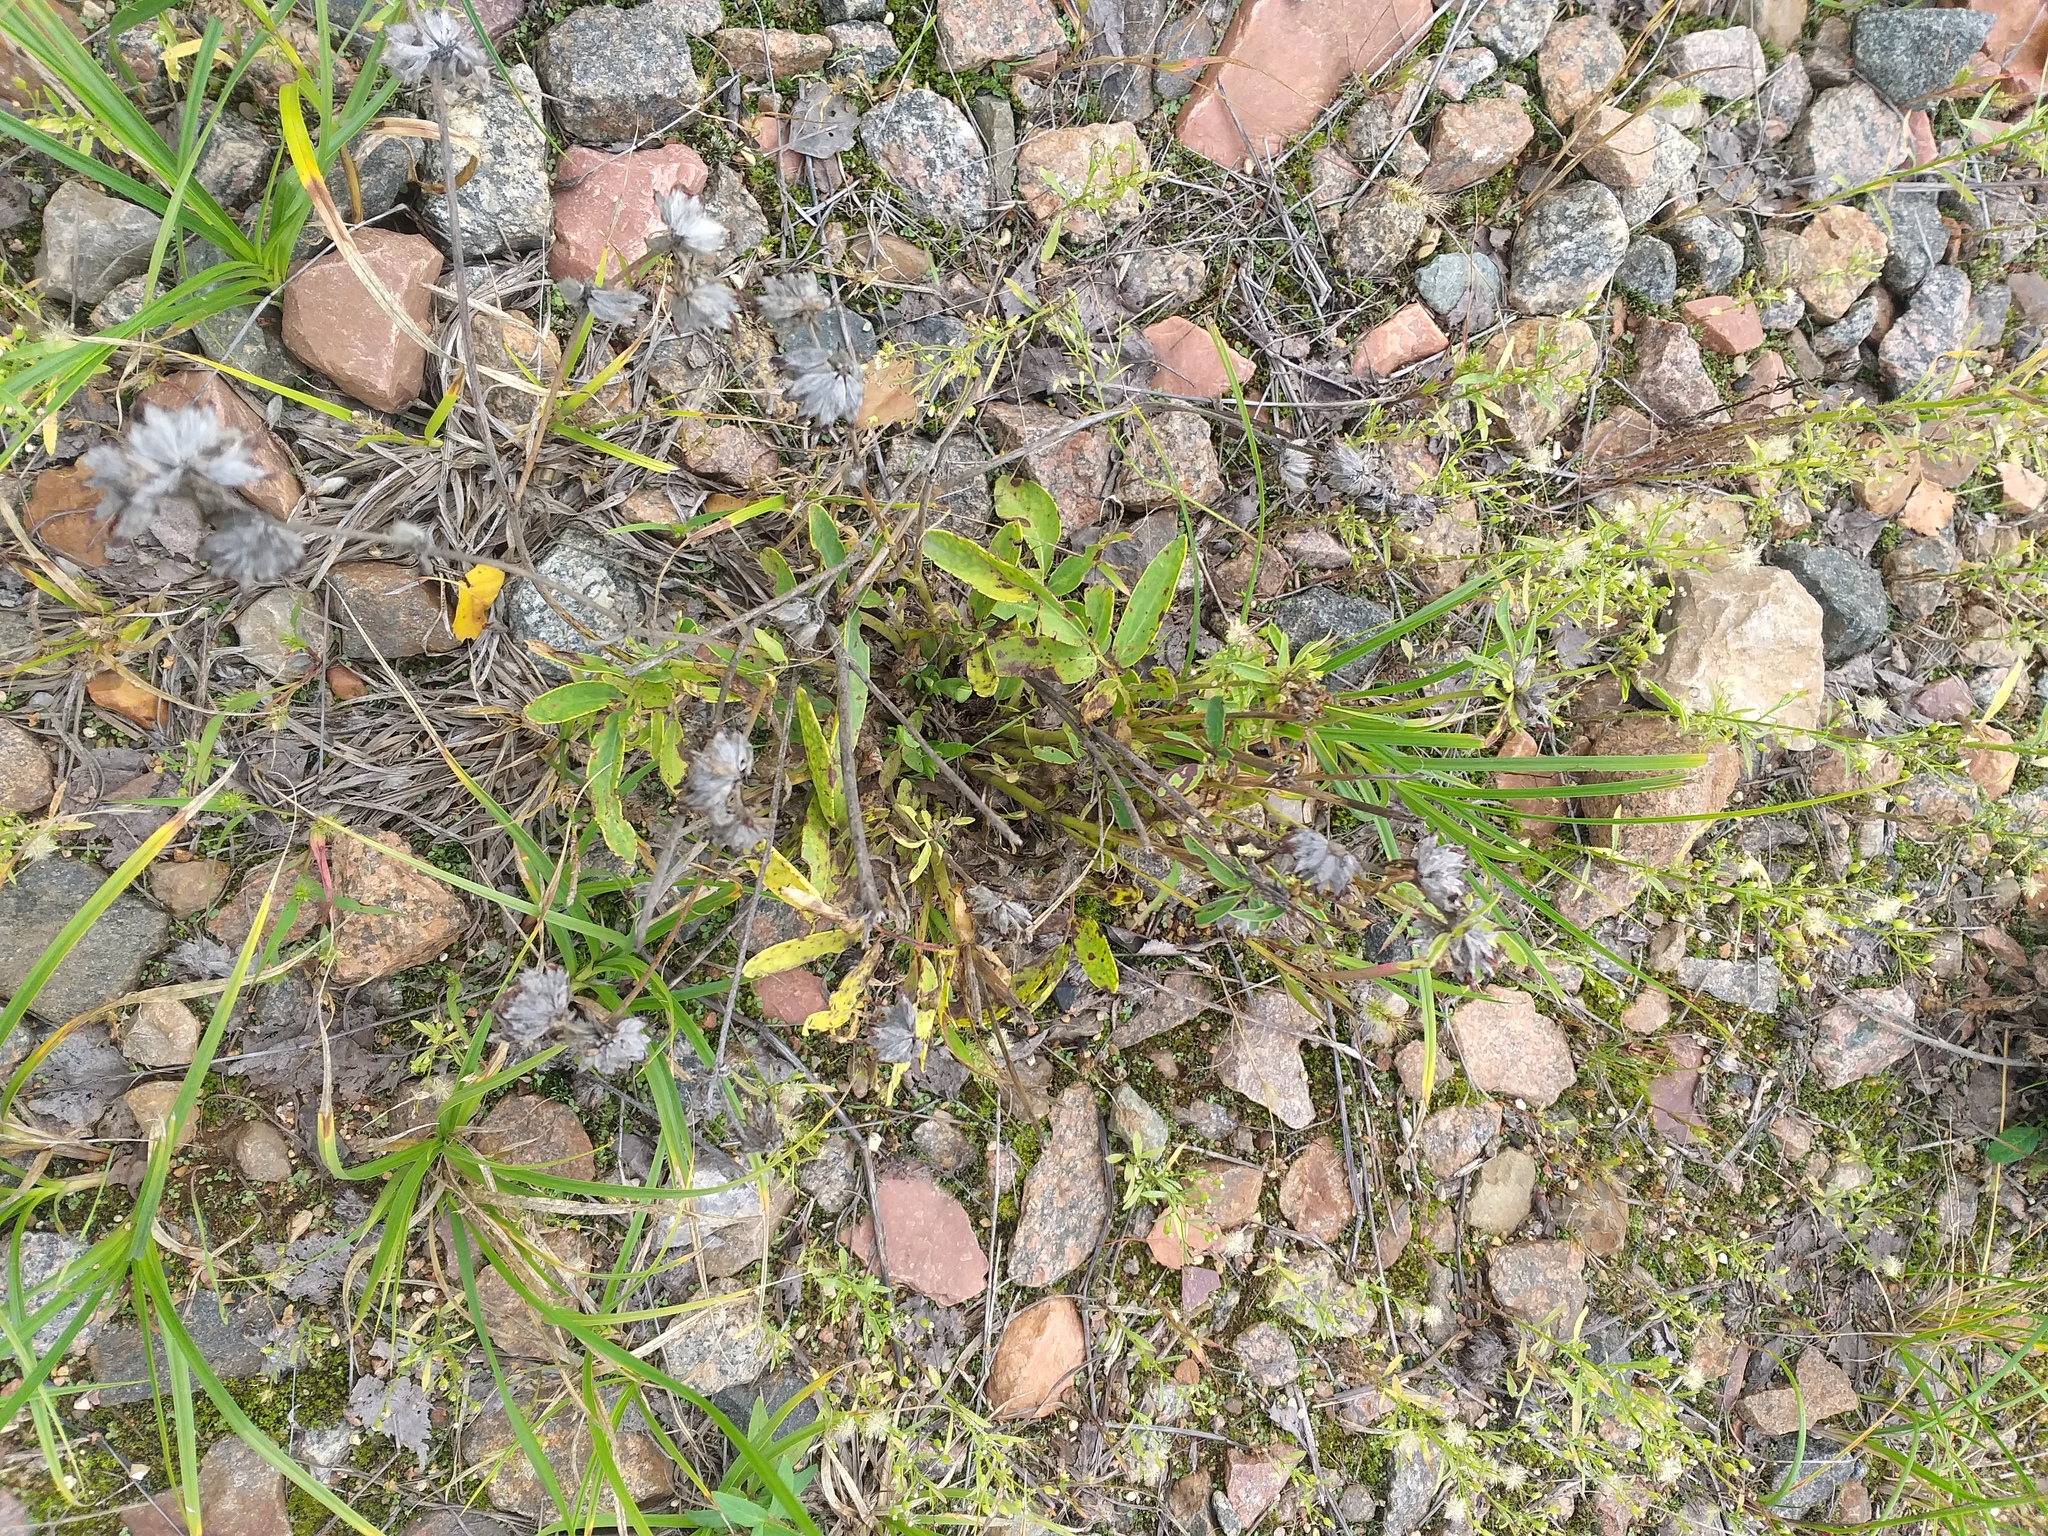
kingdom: Plantae
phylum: Tracheophyta
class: Magnoliopsida
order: Fabales
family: Fabaceae
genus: Anthyllis
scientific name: Anthyllis vulneraria
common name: Kidney vetch
